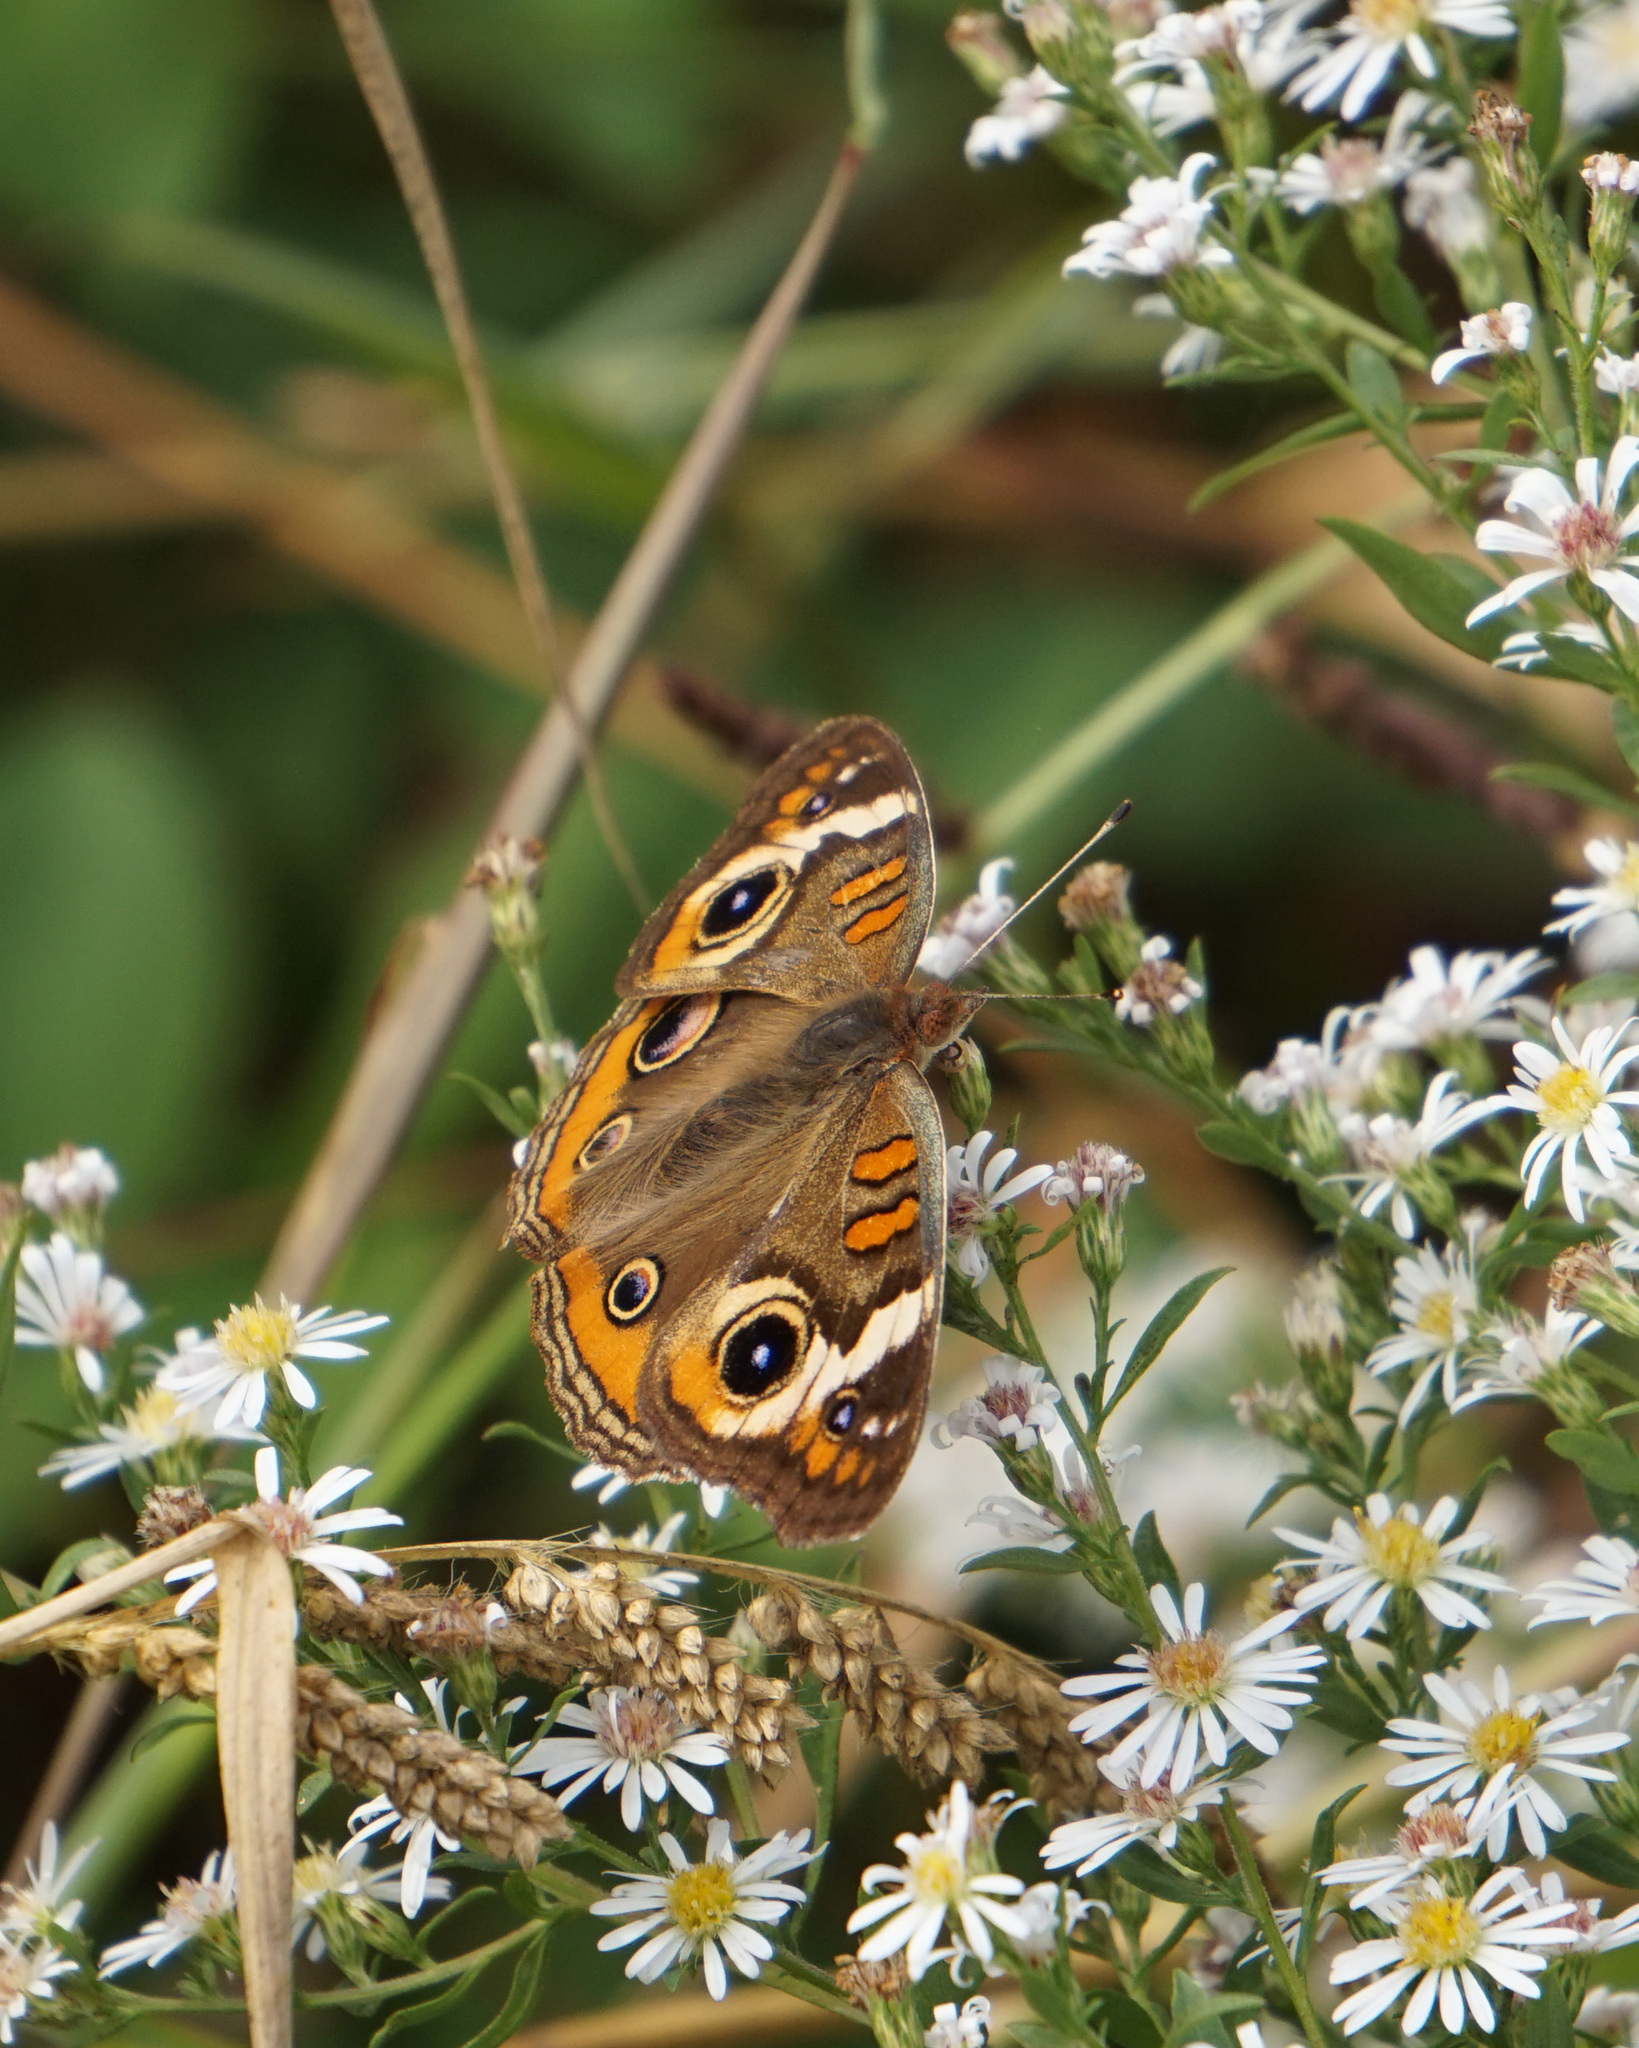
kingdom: Animalia
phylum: Arthropoda
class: Insecta
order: Lepidoptera
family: Nymphalidae
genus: Junonia
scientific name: Junonia coenia
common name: Common buckeye
